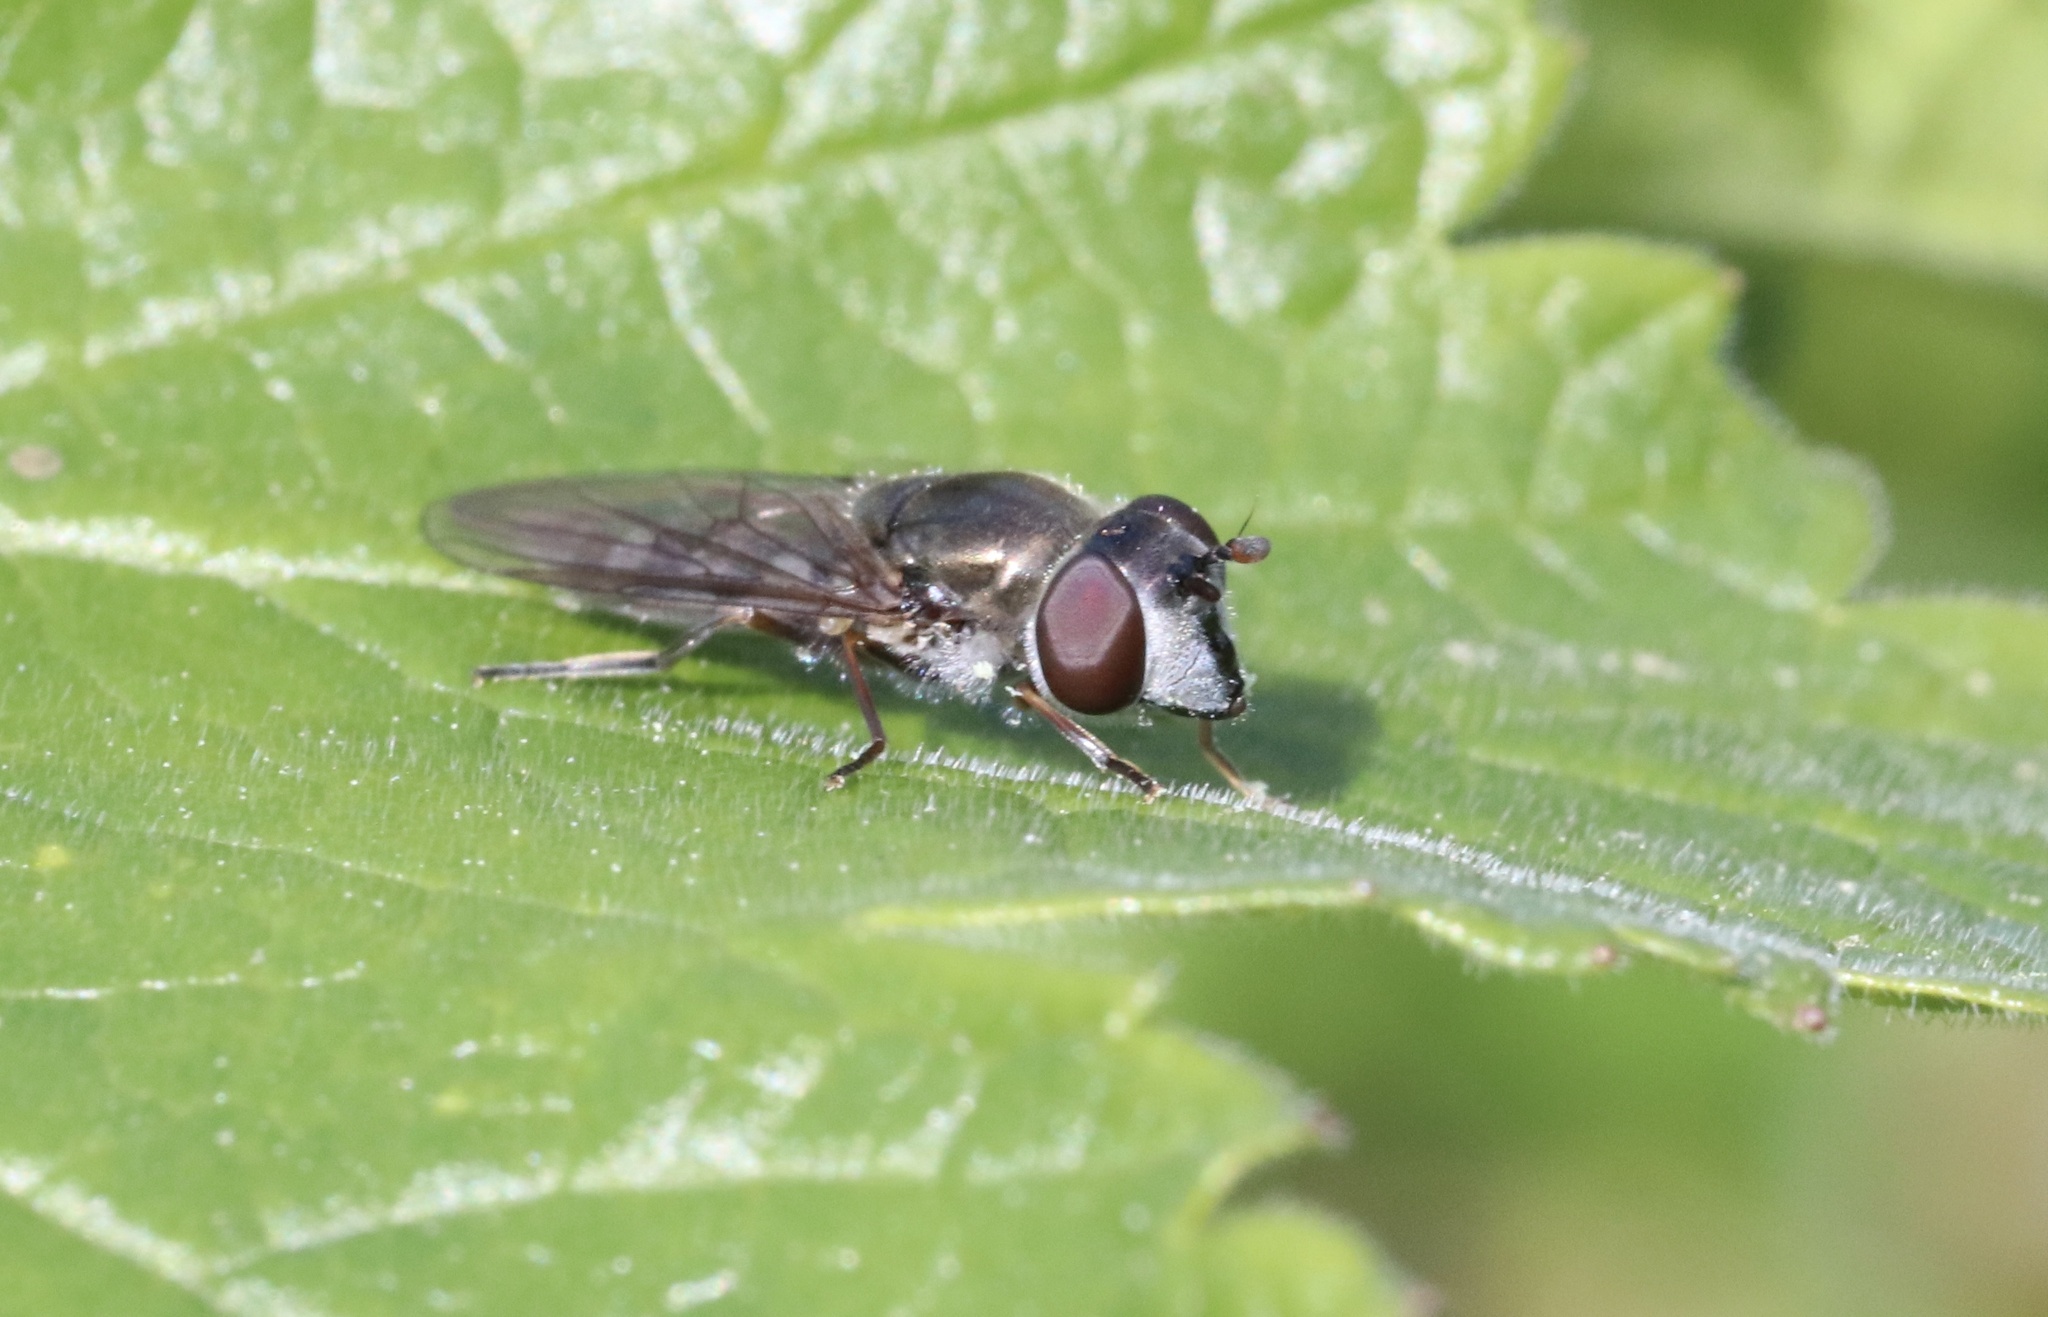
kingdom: Animalia
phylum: Arthropoda
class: Insecta
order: Diptera
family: Syrphidae
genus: Platycheirus
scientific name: Platycheirus chalconota
